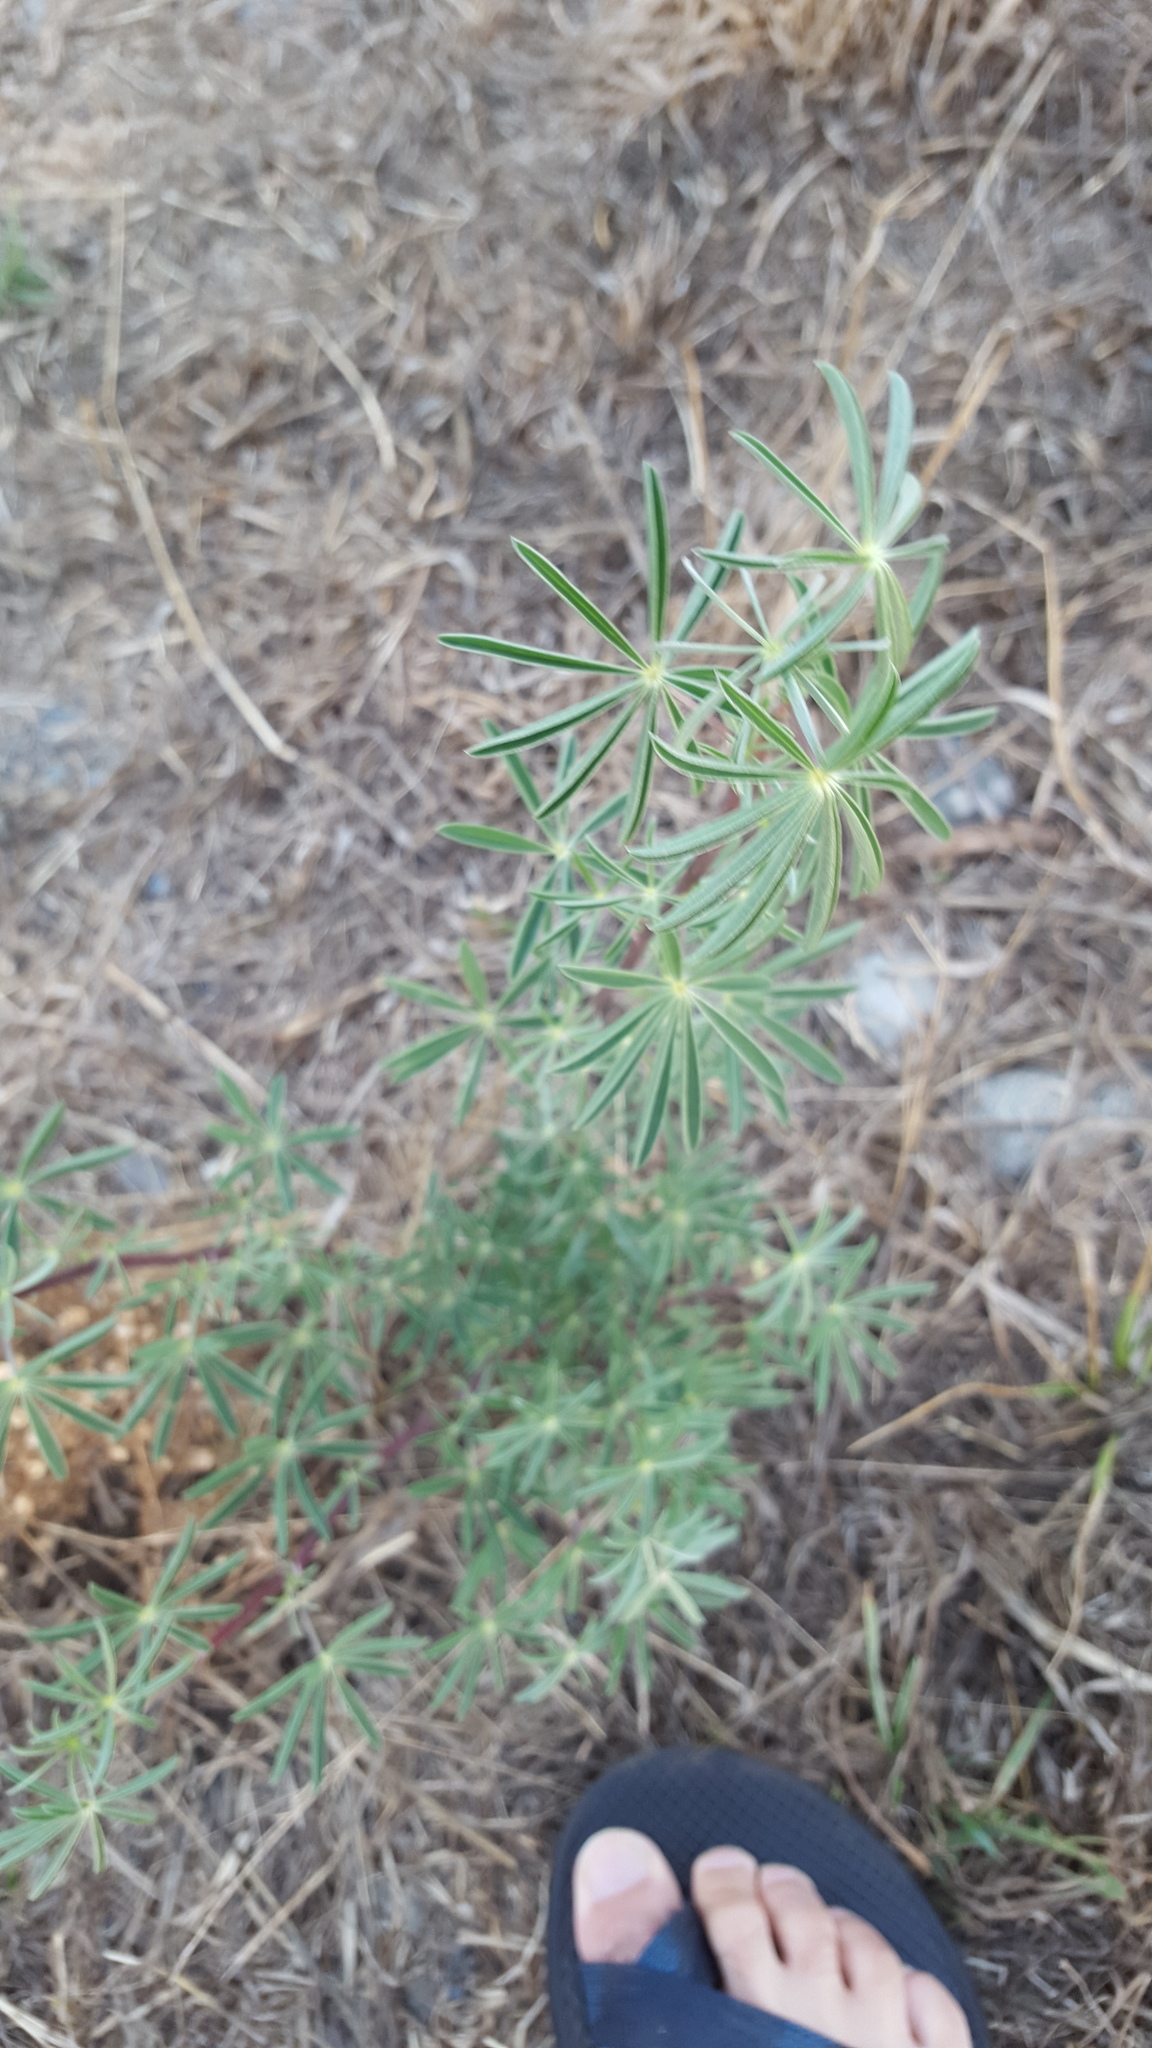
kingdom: Plantae
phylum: Tracheophyta
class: Magnoliopsida
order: Fabales
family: Fabaceae
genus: Lupinus
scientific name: Lupinus arboreus
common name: Yellow bush lupine
